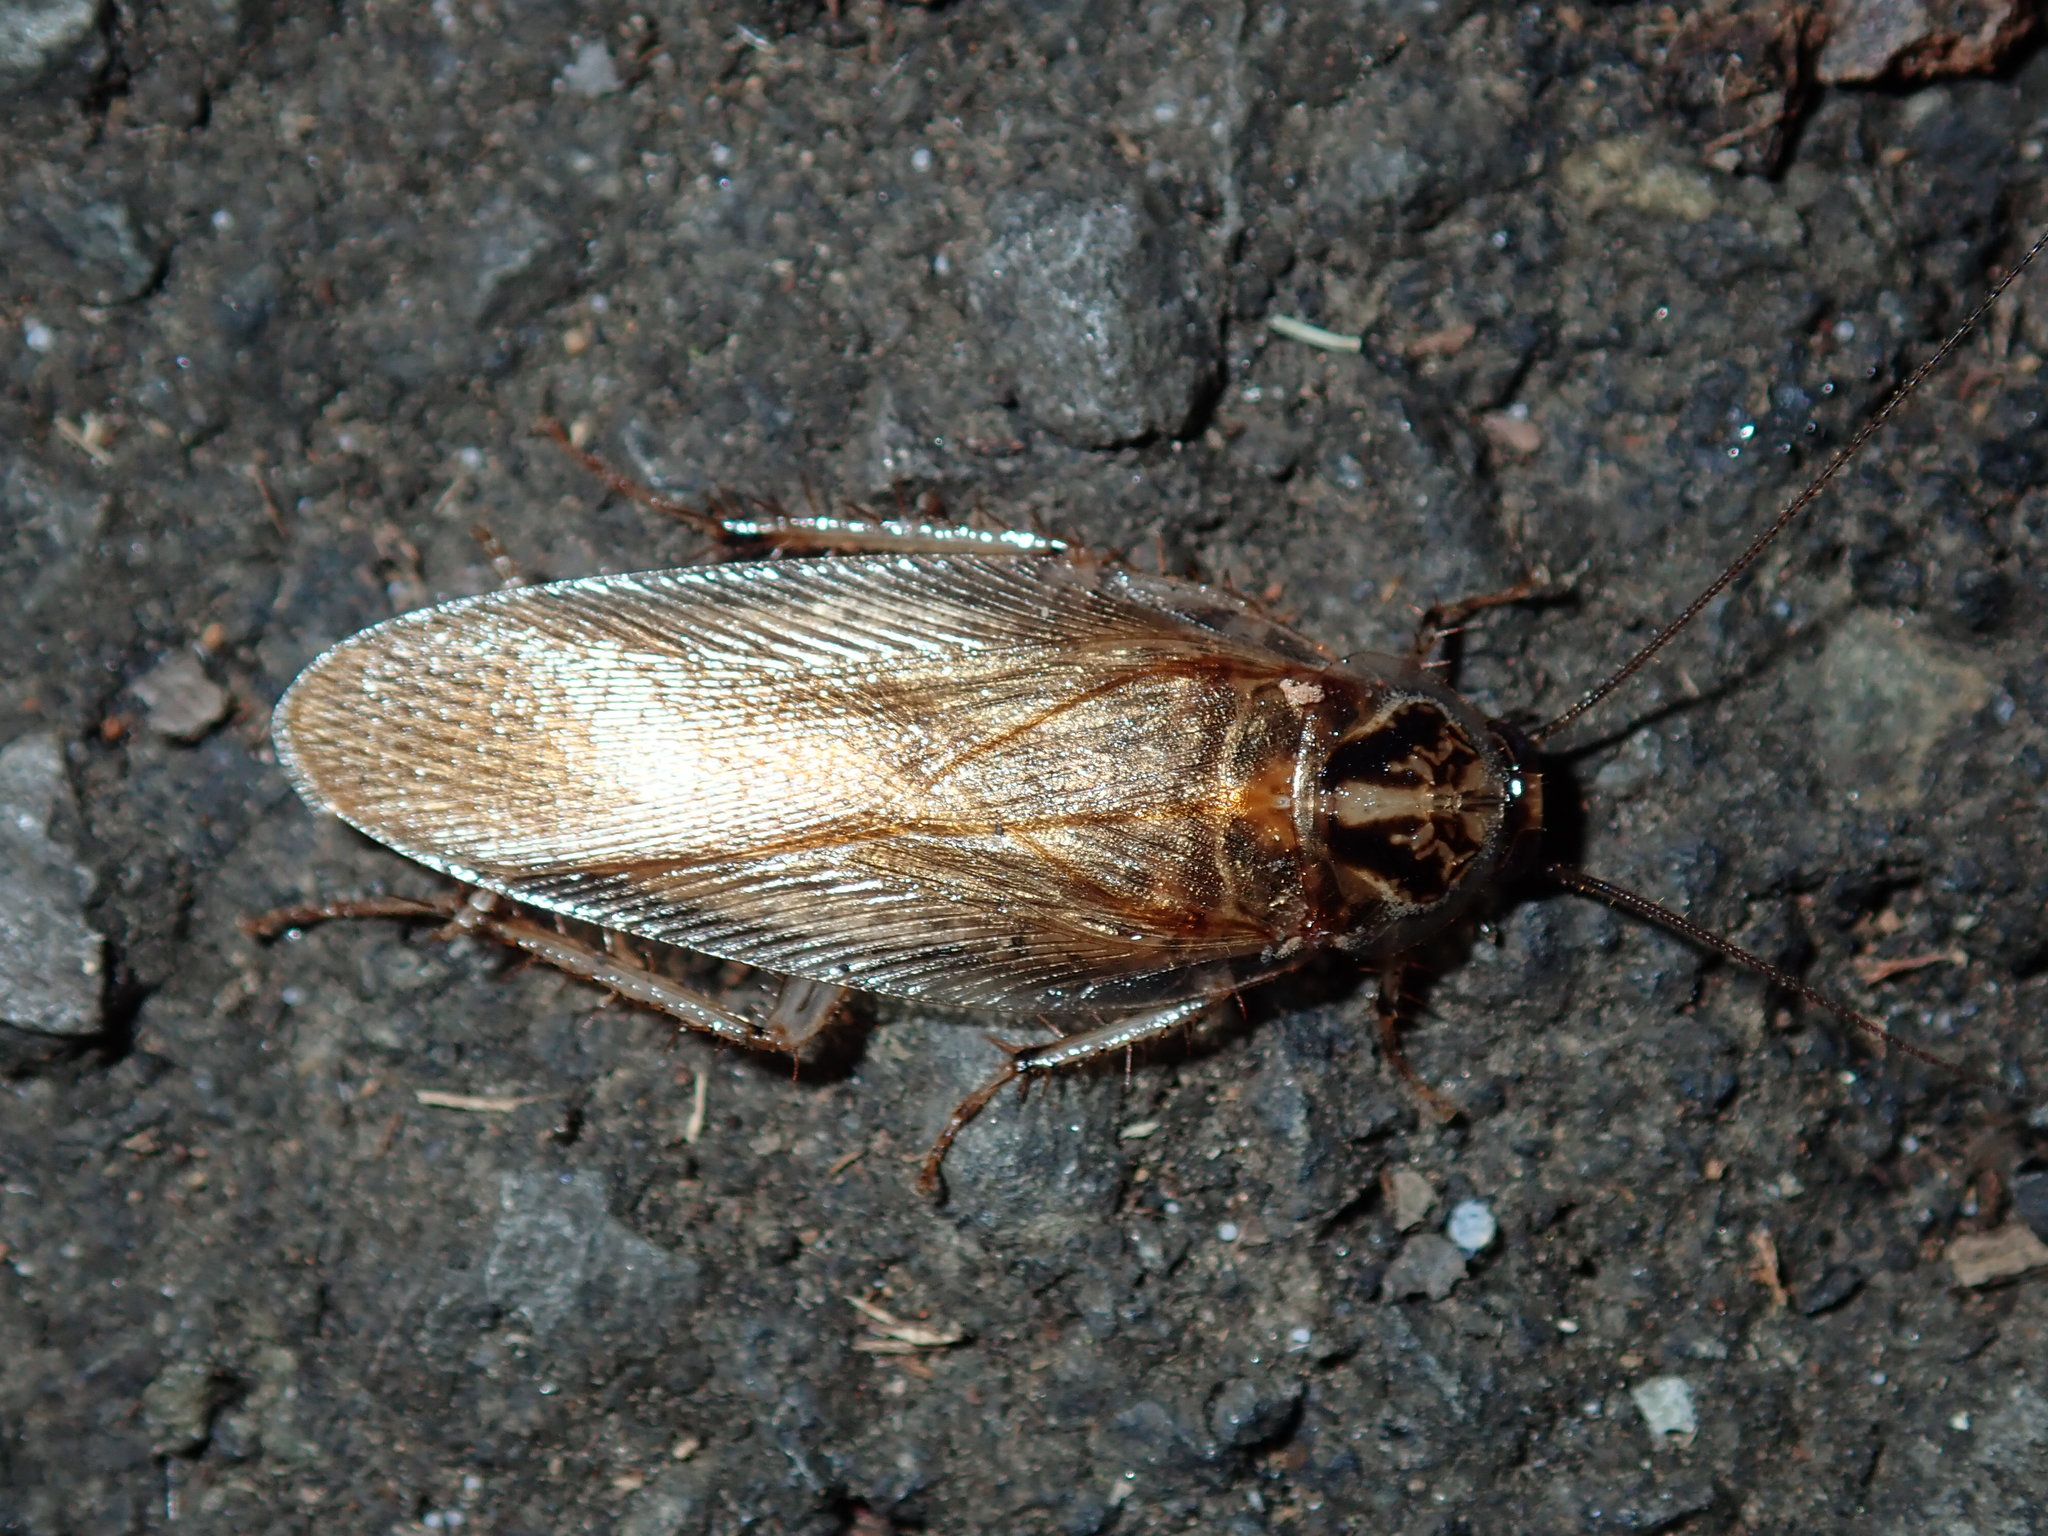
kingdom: Animalia
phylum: Arthropoda
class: Insecta
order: Blattodea
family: Ectobiidae
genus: Johnrehnia
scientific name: Johnrehnia contraria
